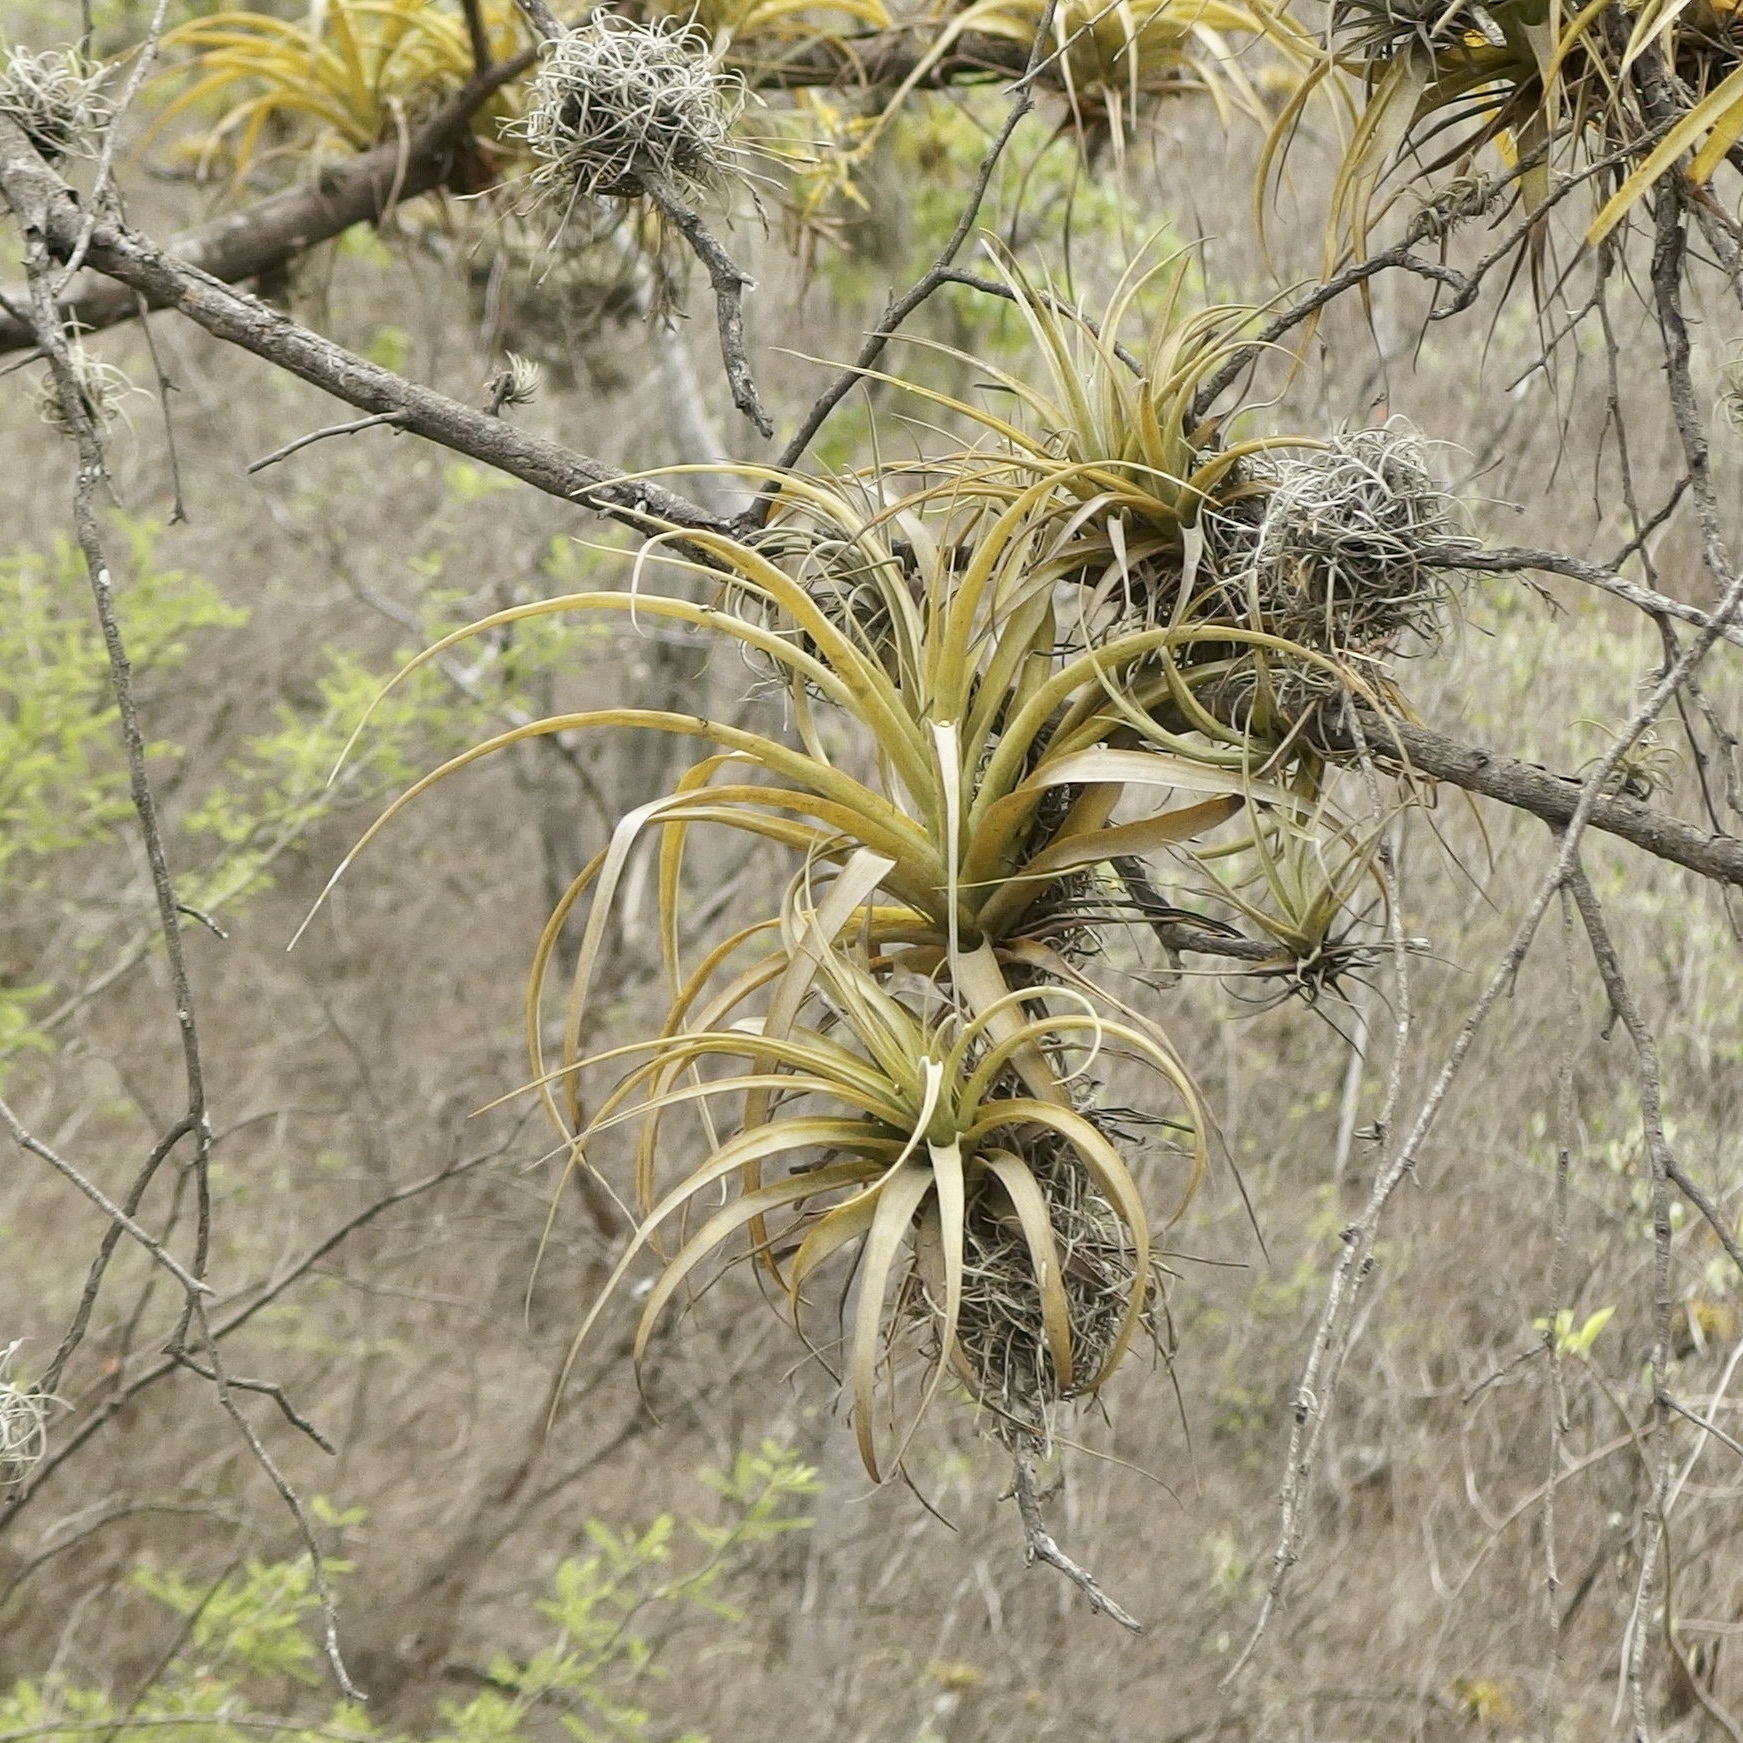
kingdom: Plantae
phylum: Tracheophyta
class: Liliopsida
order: Poales
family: Bromeliaceae
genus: Racinaea
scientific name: Racinaea multiflora
